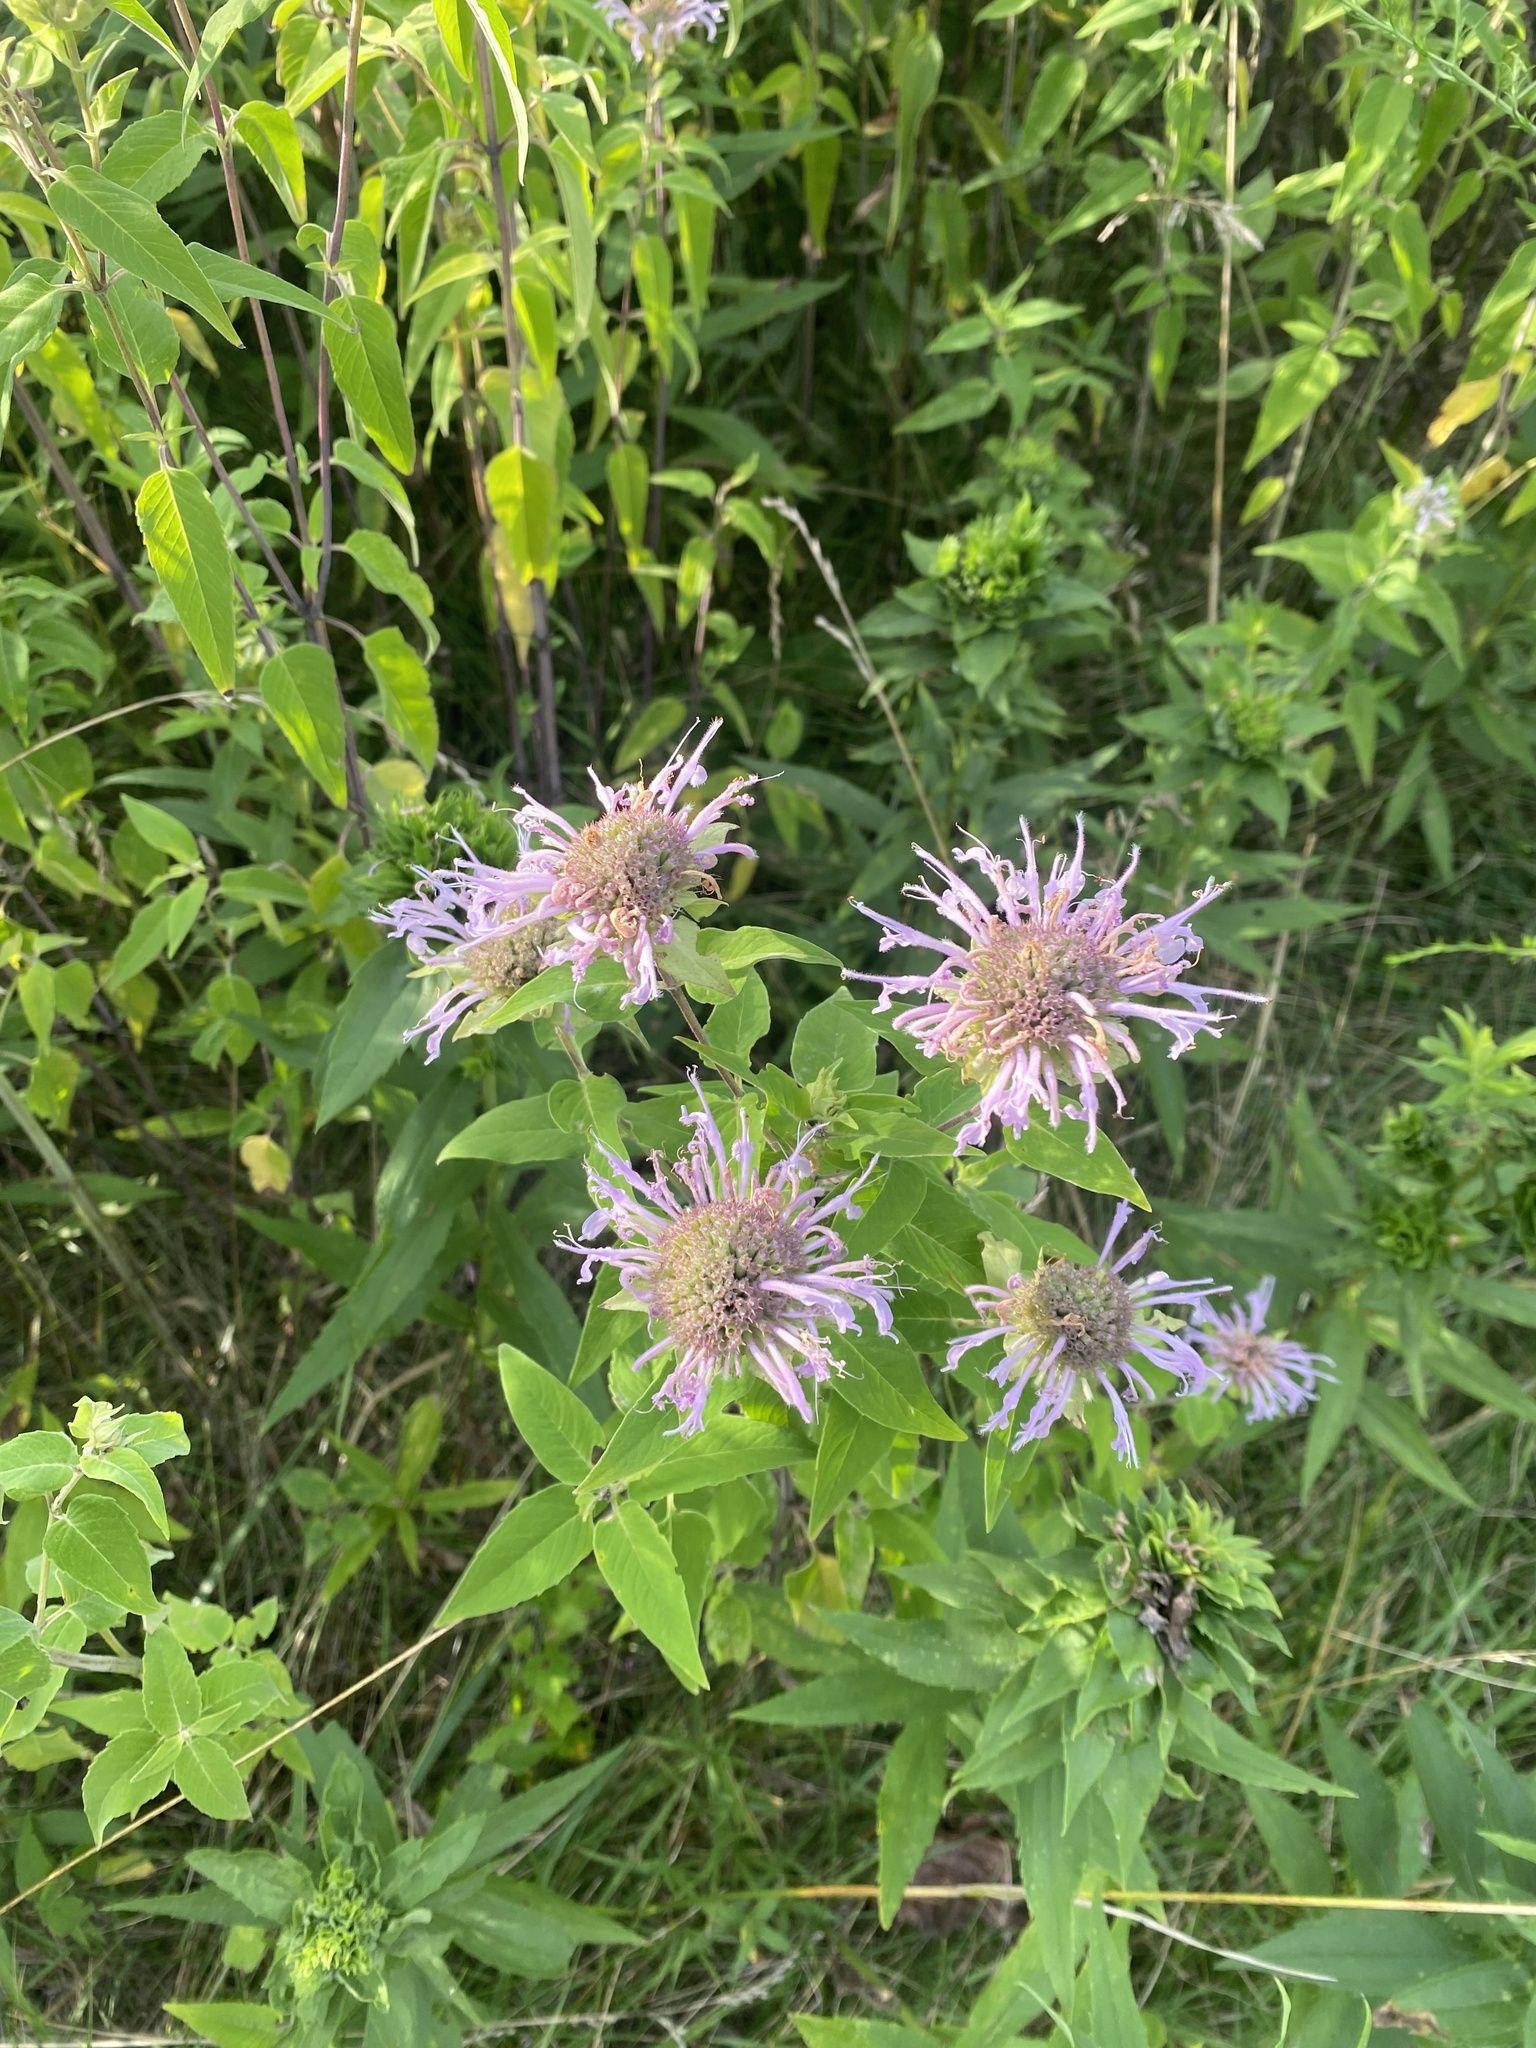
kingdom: Plantae
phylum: Tracheophyta
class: Magnoliopsida
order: Lamiales
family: Lamiaceae
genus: Monarda
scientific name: Monarda fistulosa
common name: Purple beebalm
